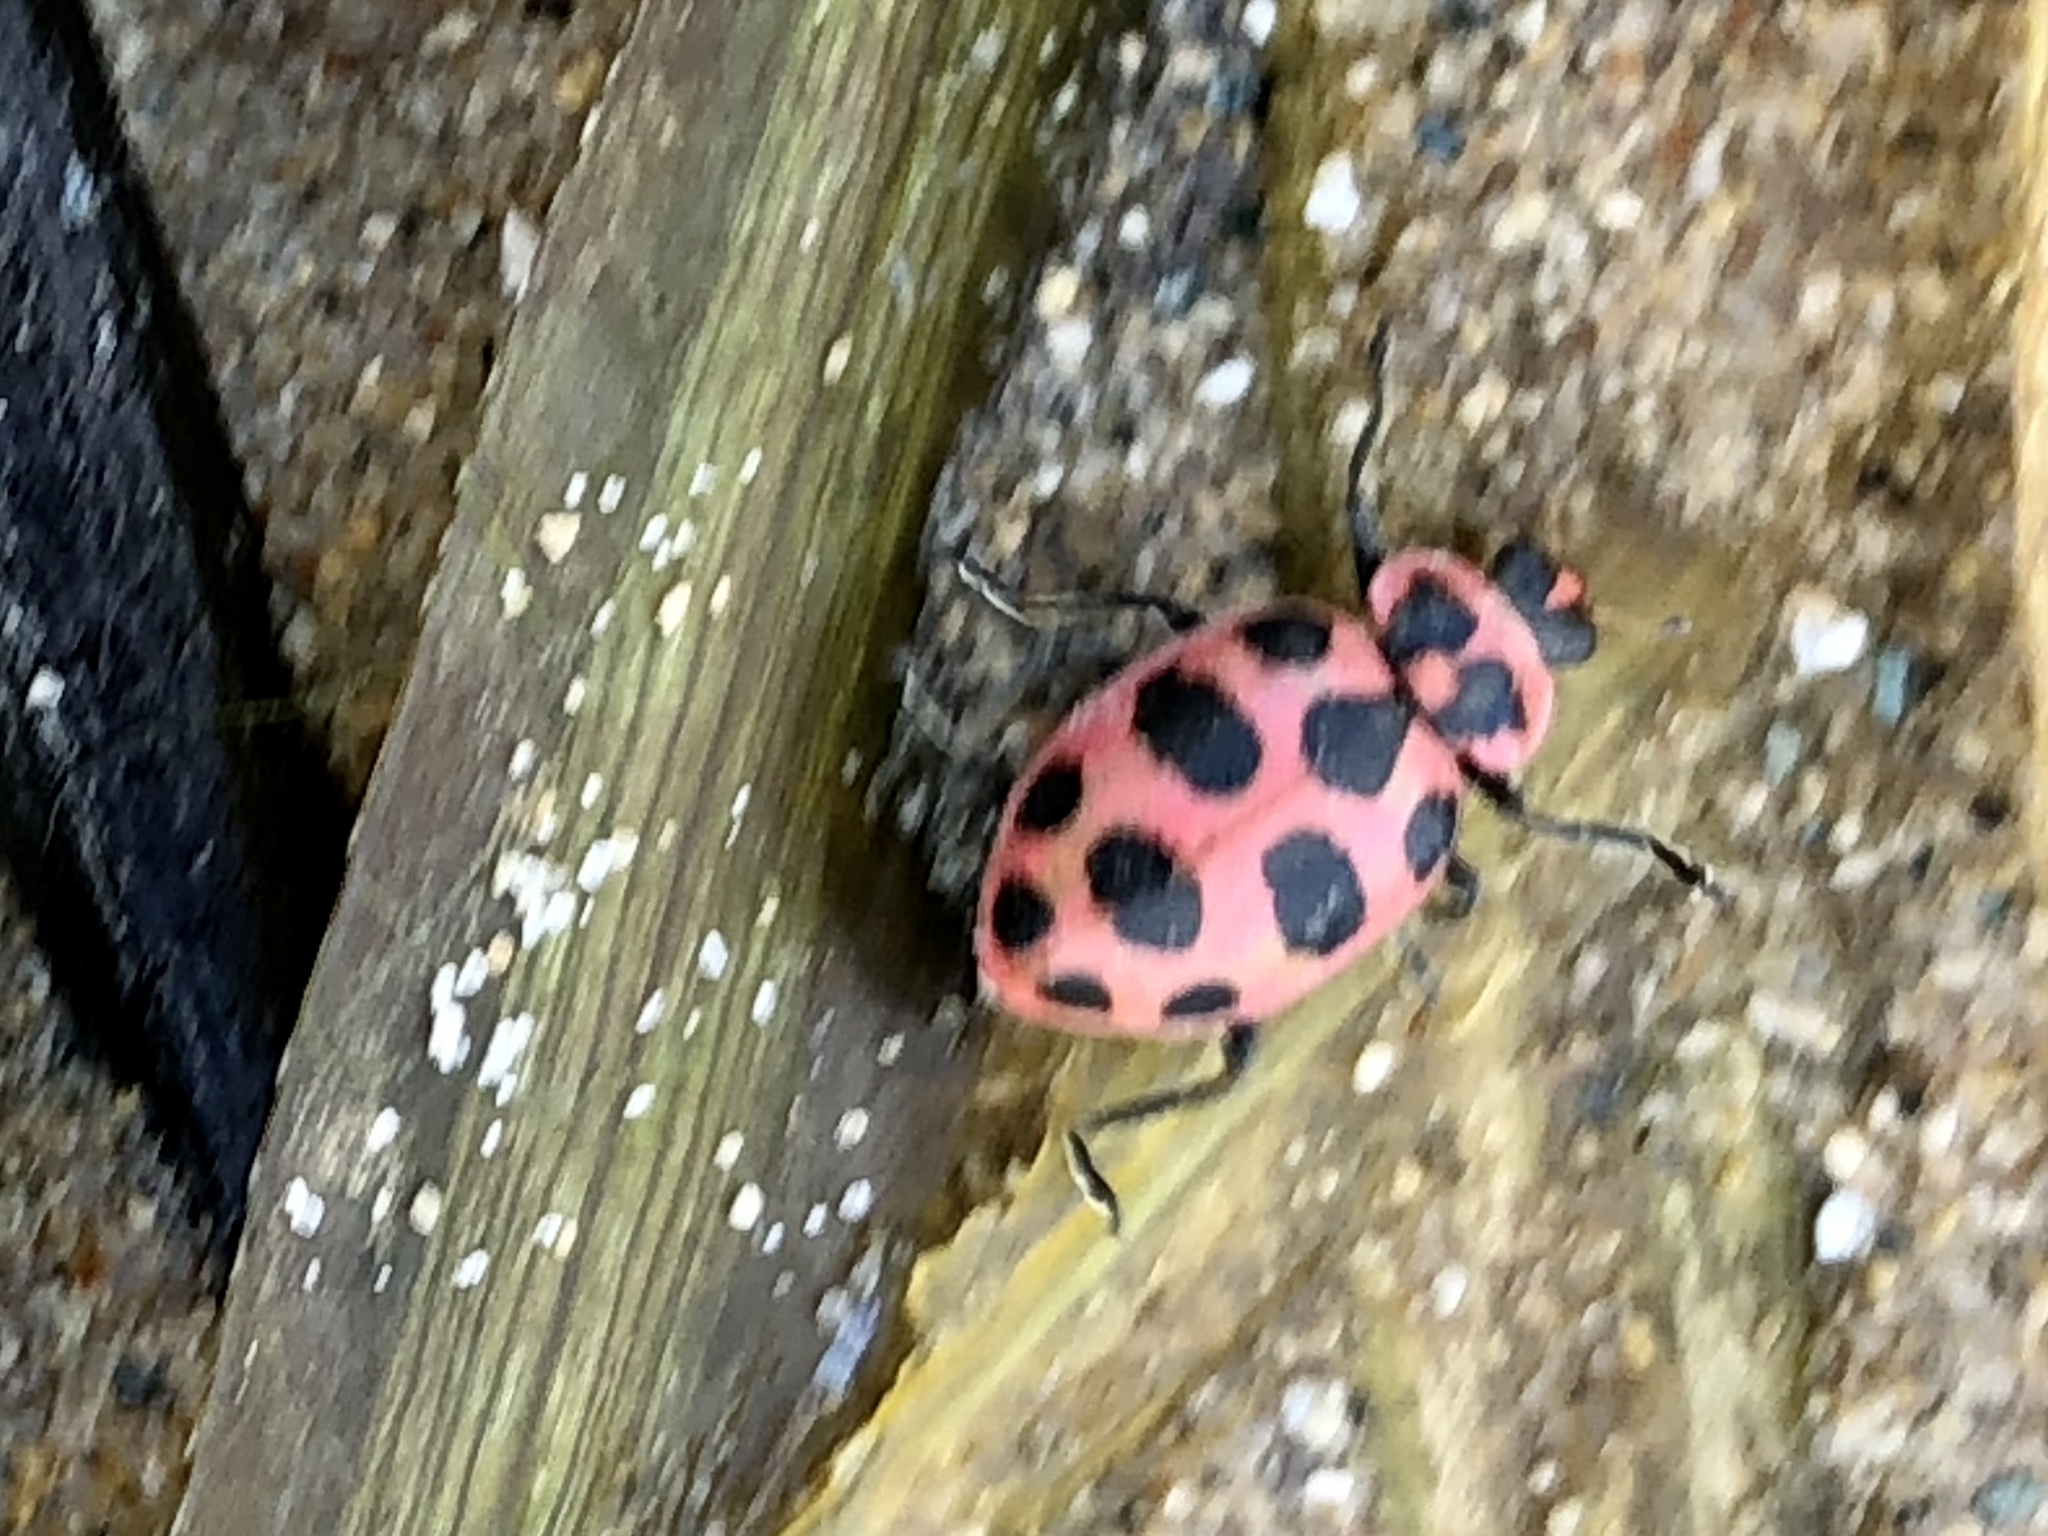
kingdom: Animalia
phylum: Arthropoda
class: Insecta
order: Coleoptera
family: Coccinellidae
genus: Coleomegilla
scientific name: Coleomegilla maculata
